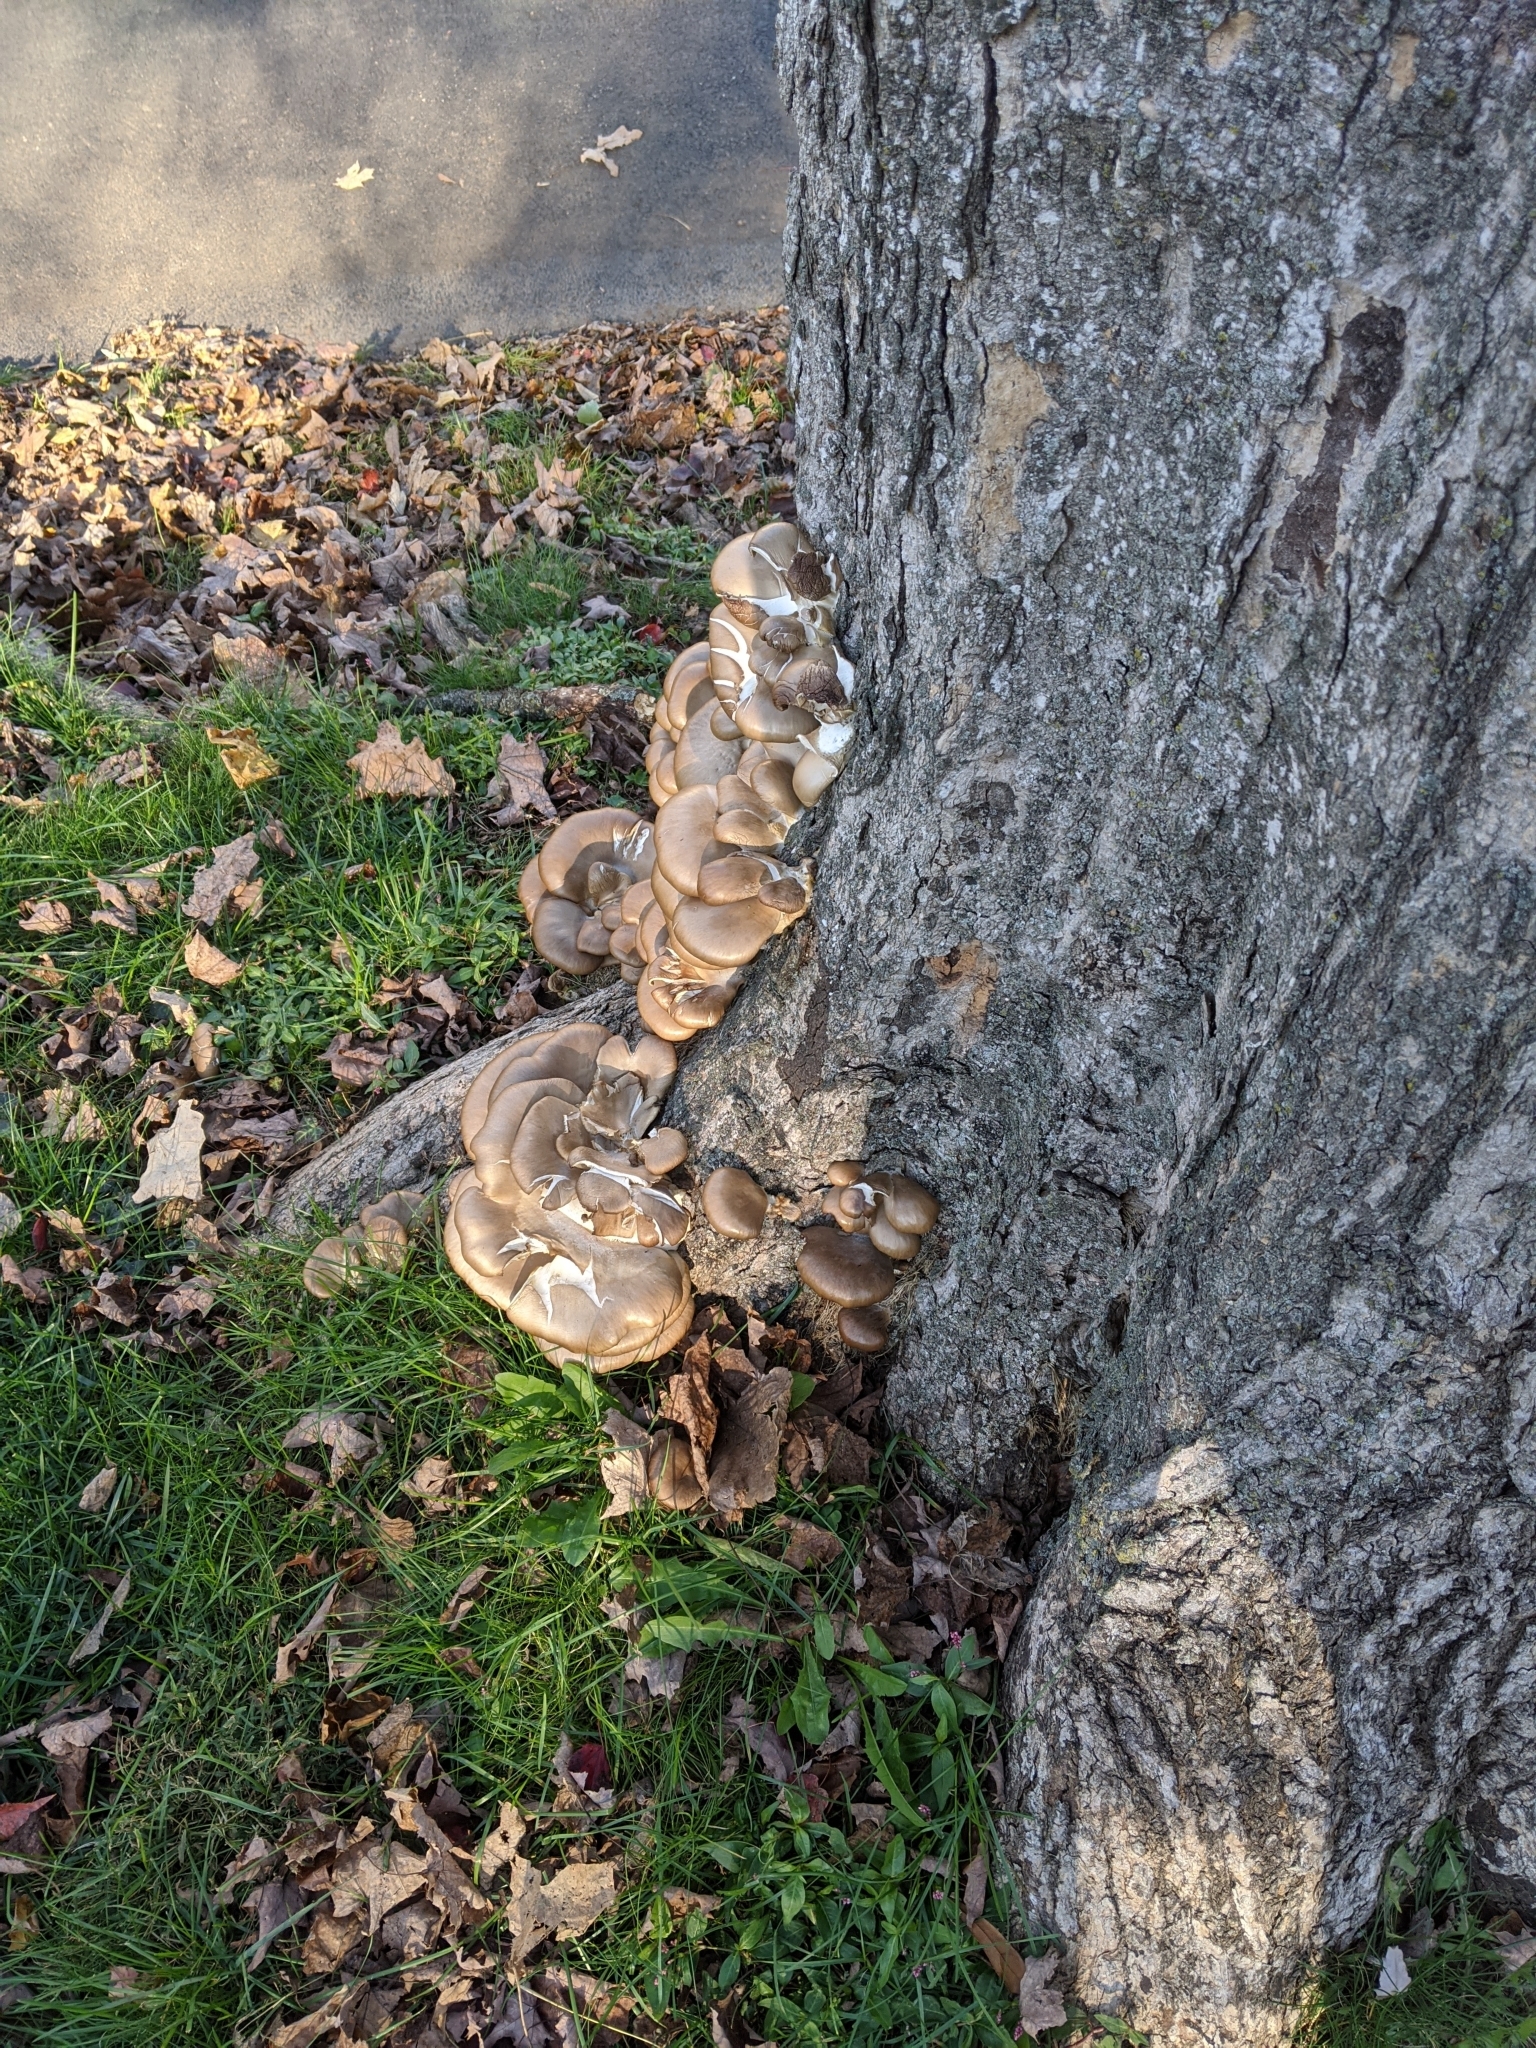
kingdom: Fungi
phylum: Basidiomycota
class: Agaricomycetes
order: Agaricales
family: Pleurotaceae
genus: Pleurotus
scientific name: Pleurotus ostreatus
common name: Oyster mushroom
